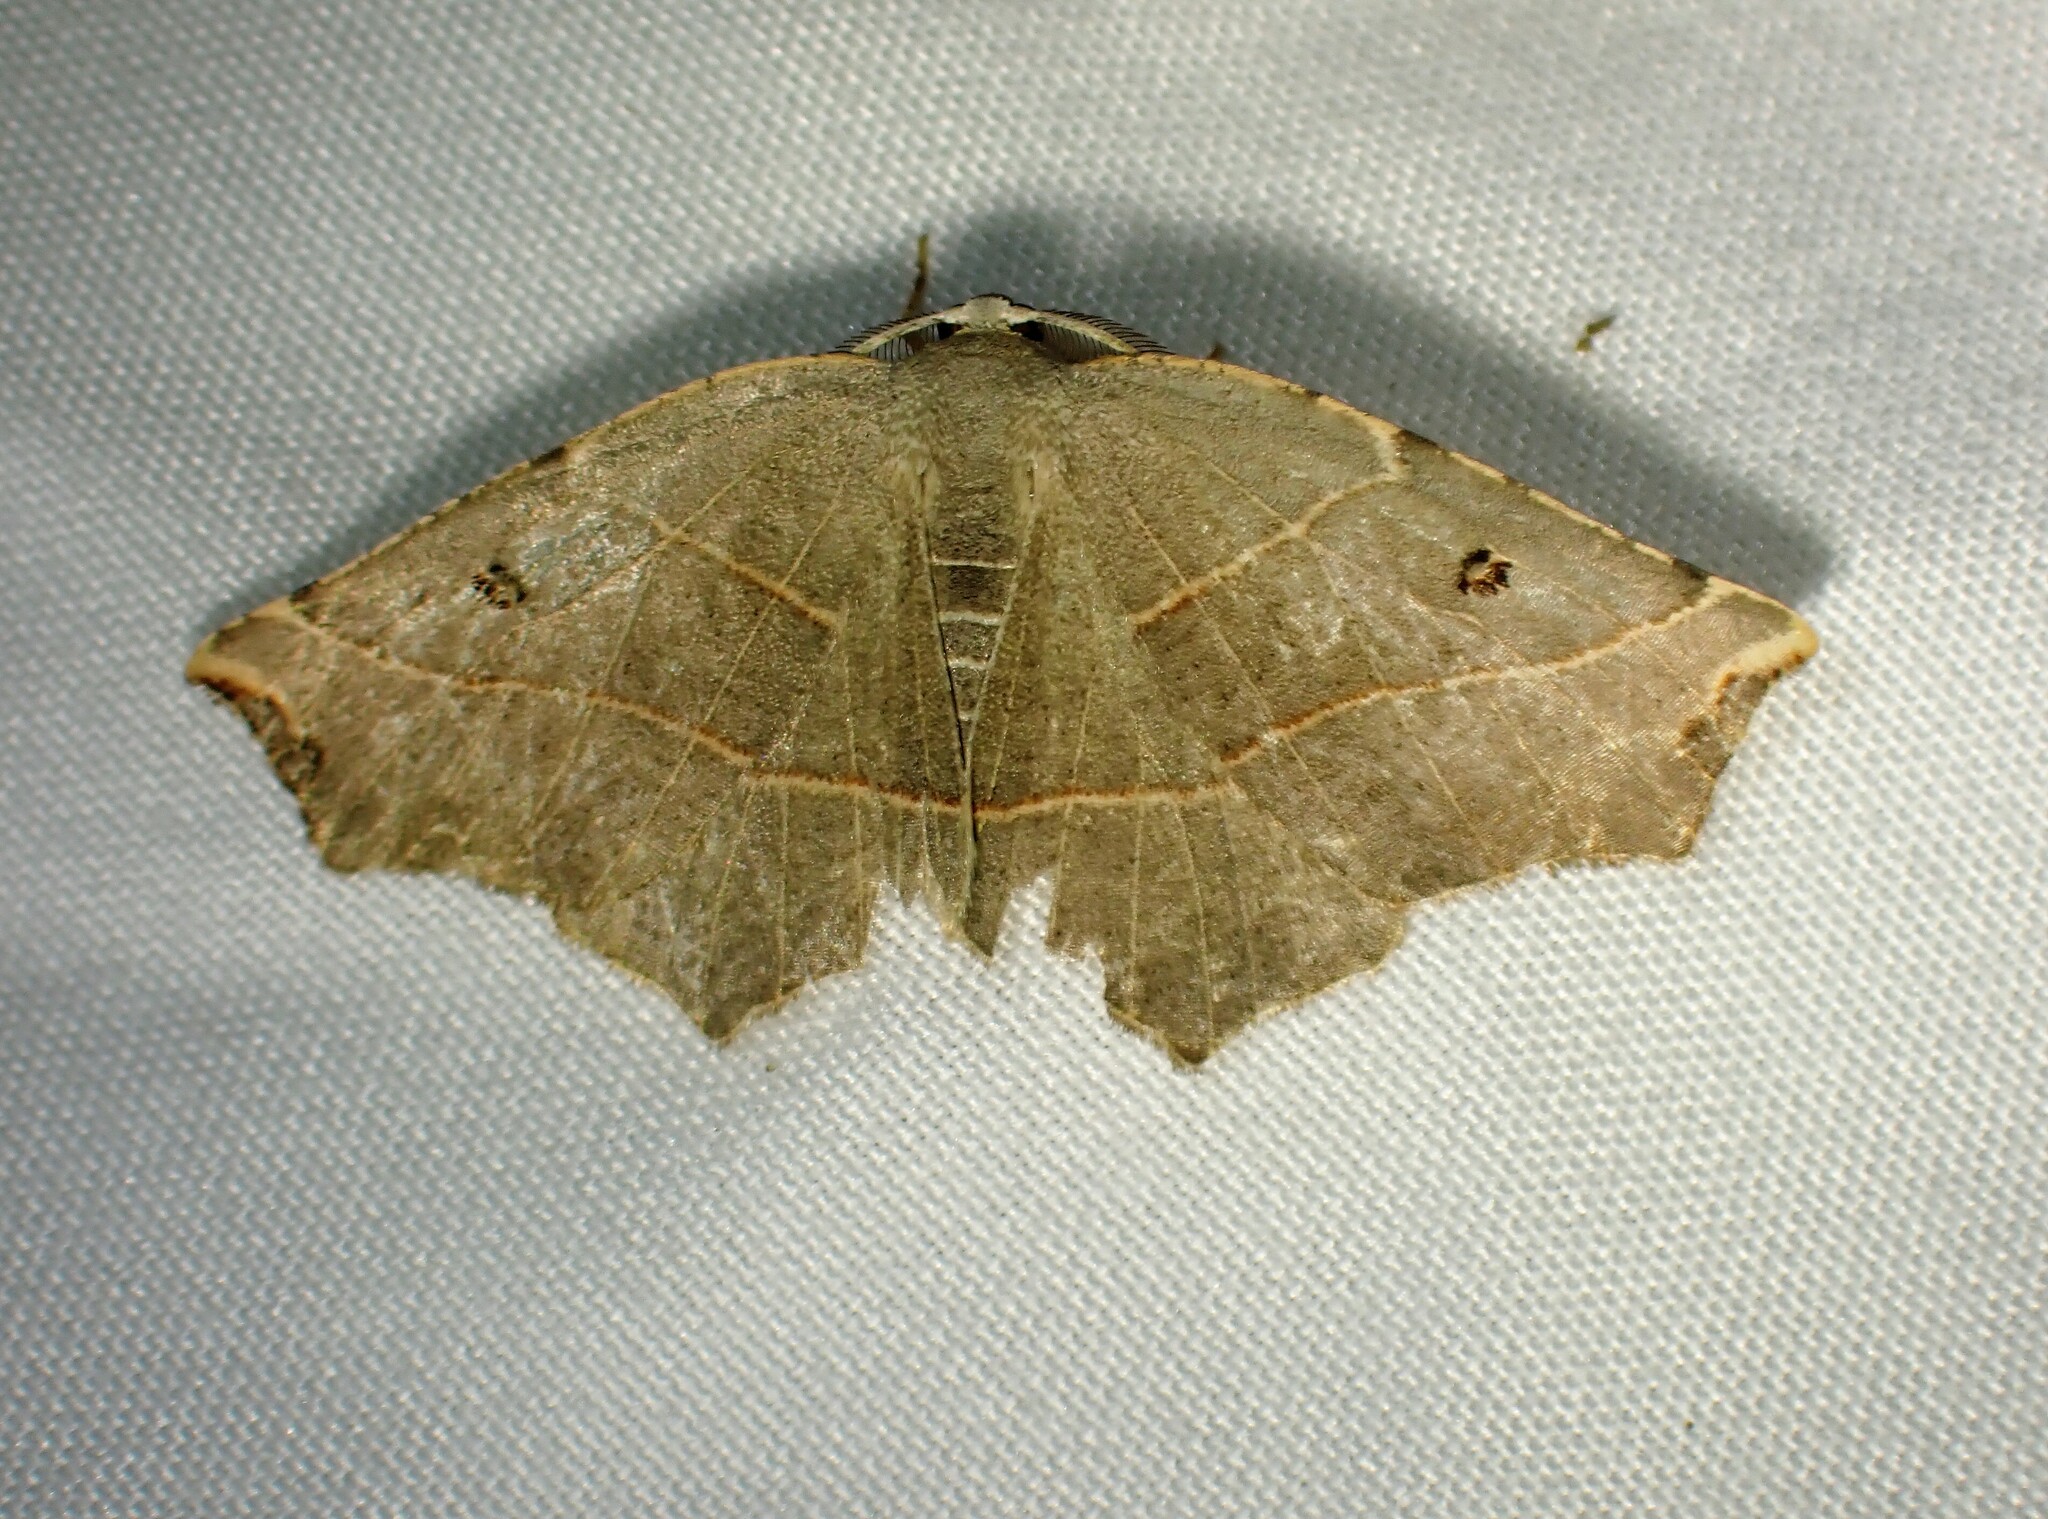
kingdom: Animalia
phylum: Arthropoda
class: Insecta
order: Lepidoptera
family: Geometridae
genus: Metanema
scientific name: Metanema inatomaria
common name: Pale metanema
